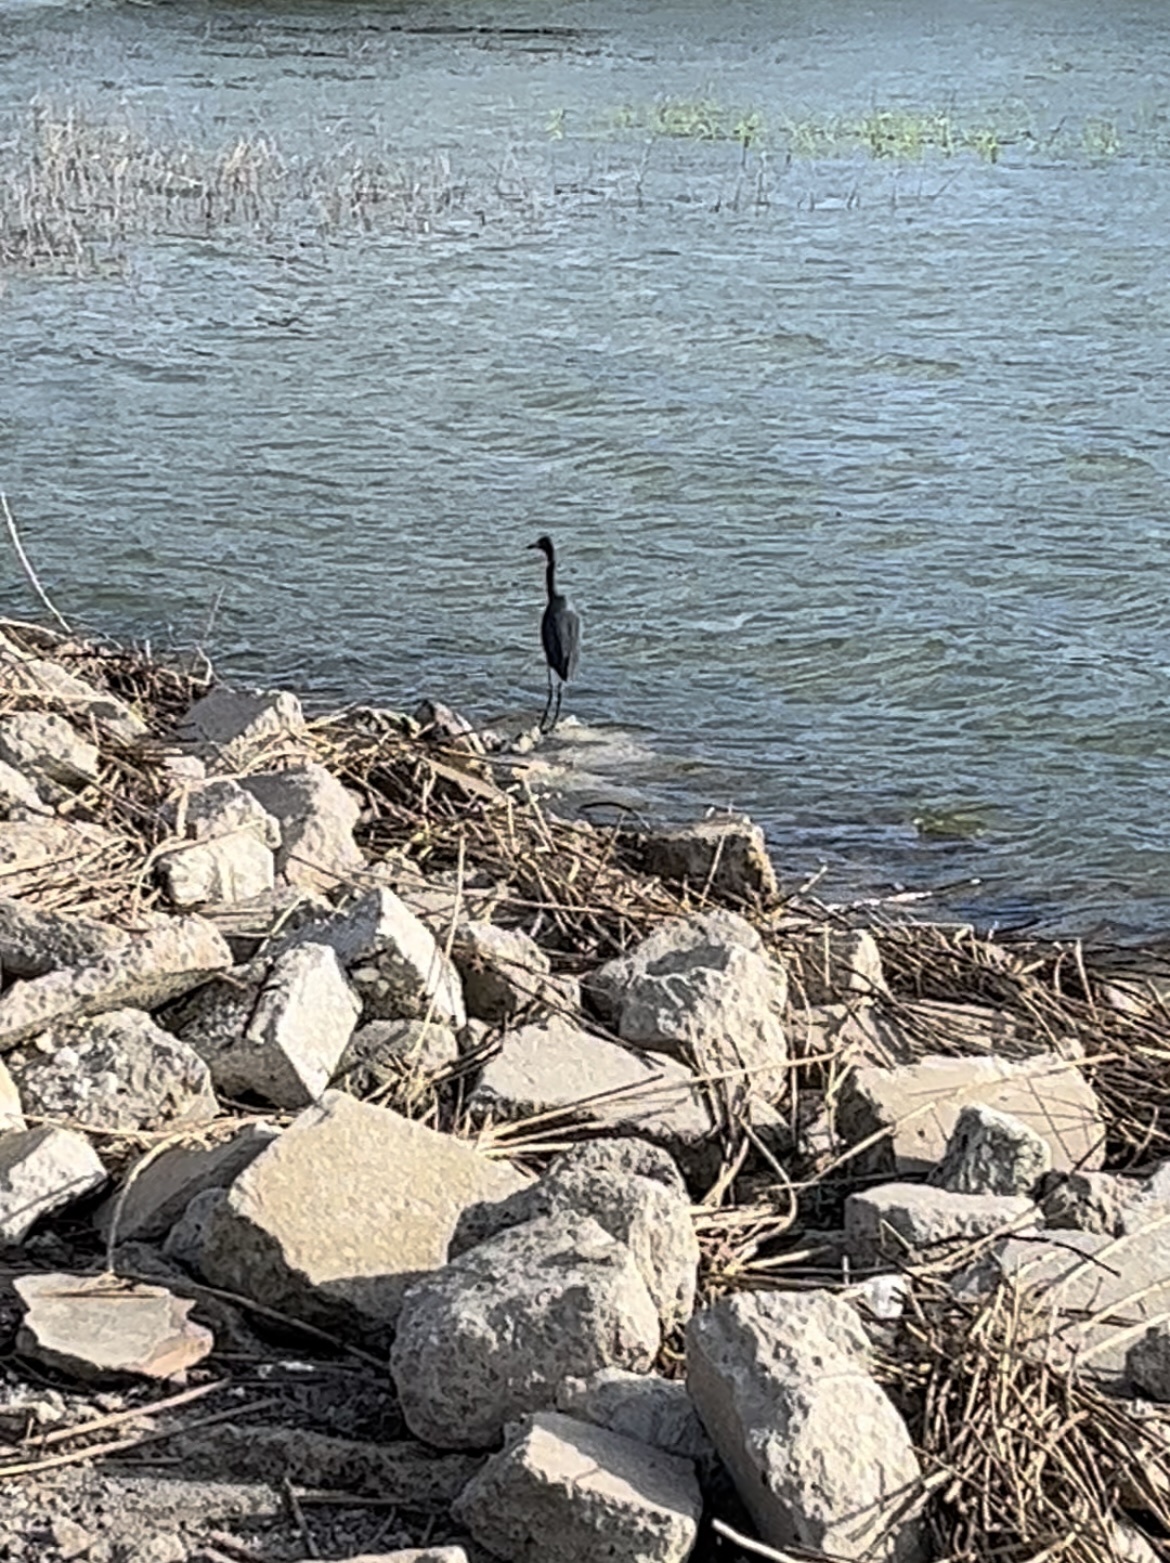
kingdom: Animalia
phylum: Chordata
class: Aves
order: Pelecaniformes
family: Ardeidae
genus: Egretta
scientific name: Egretta caerulea
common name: Little blue heron
